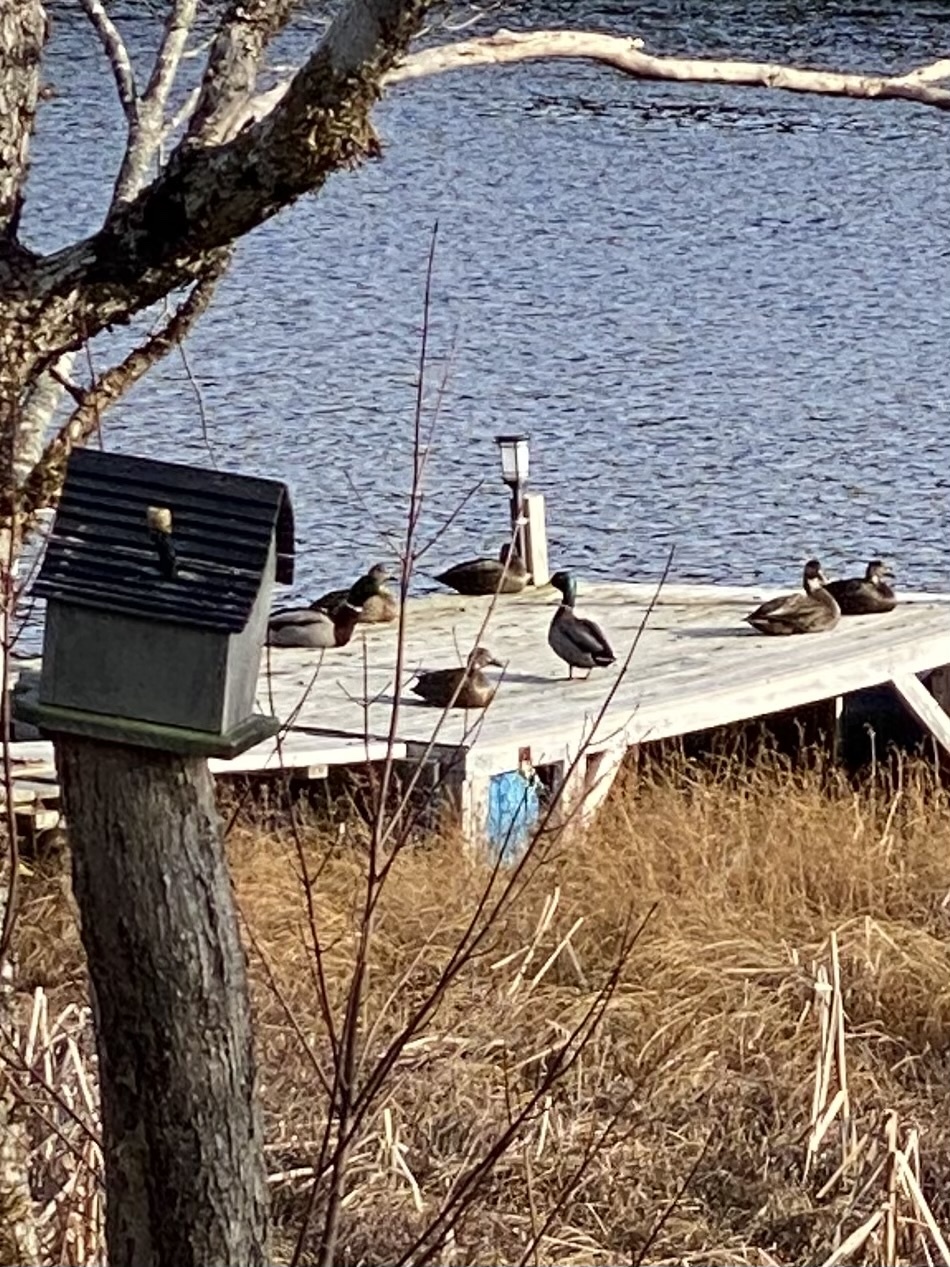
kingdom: Animalia
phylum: Chordata
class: Aves
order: Anseriformes
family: Anatidae
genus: Anas
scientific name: Anas platyrhynchos
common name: Mallard
